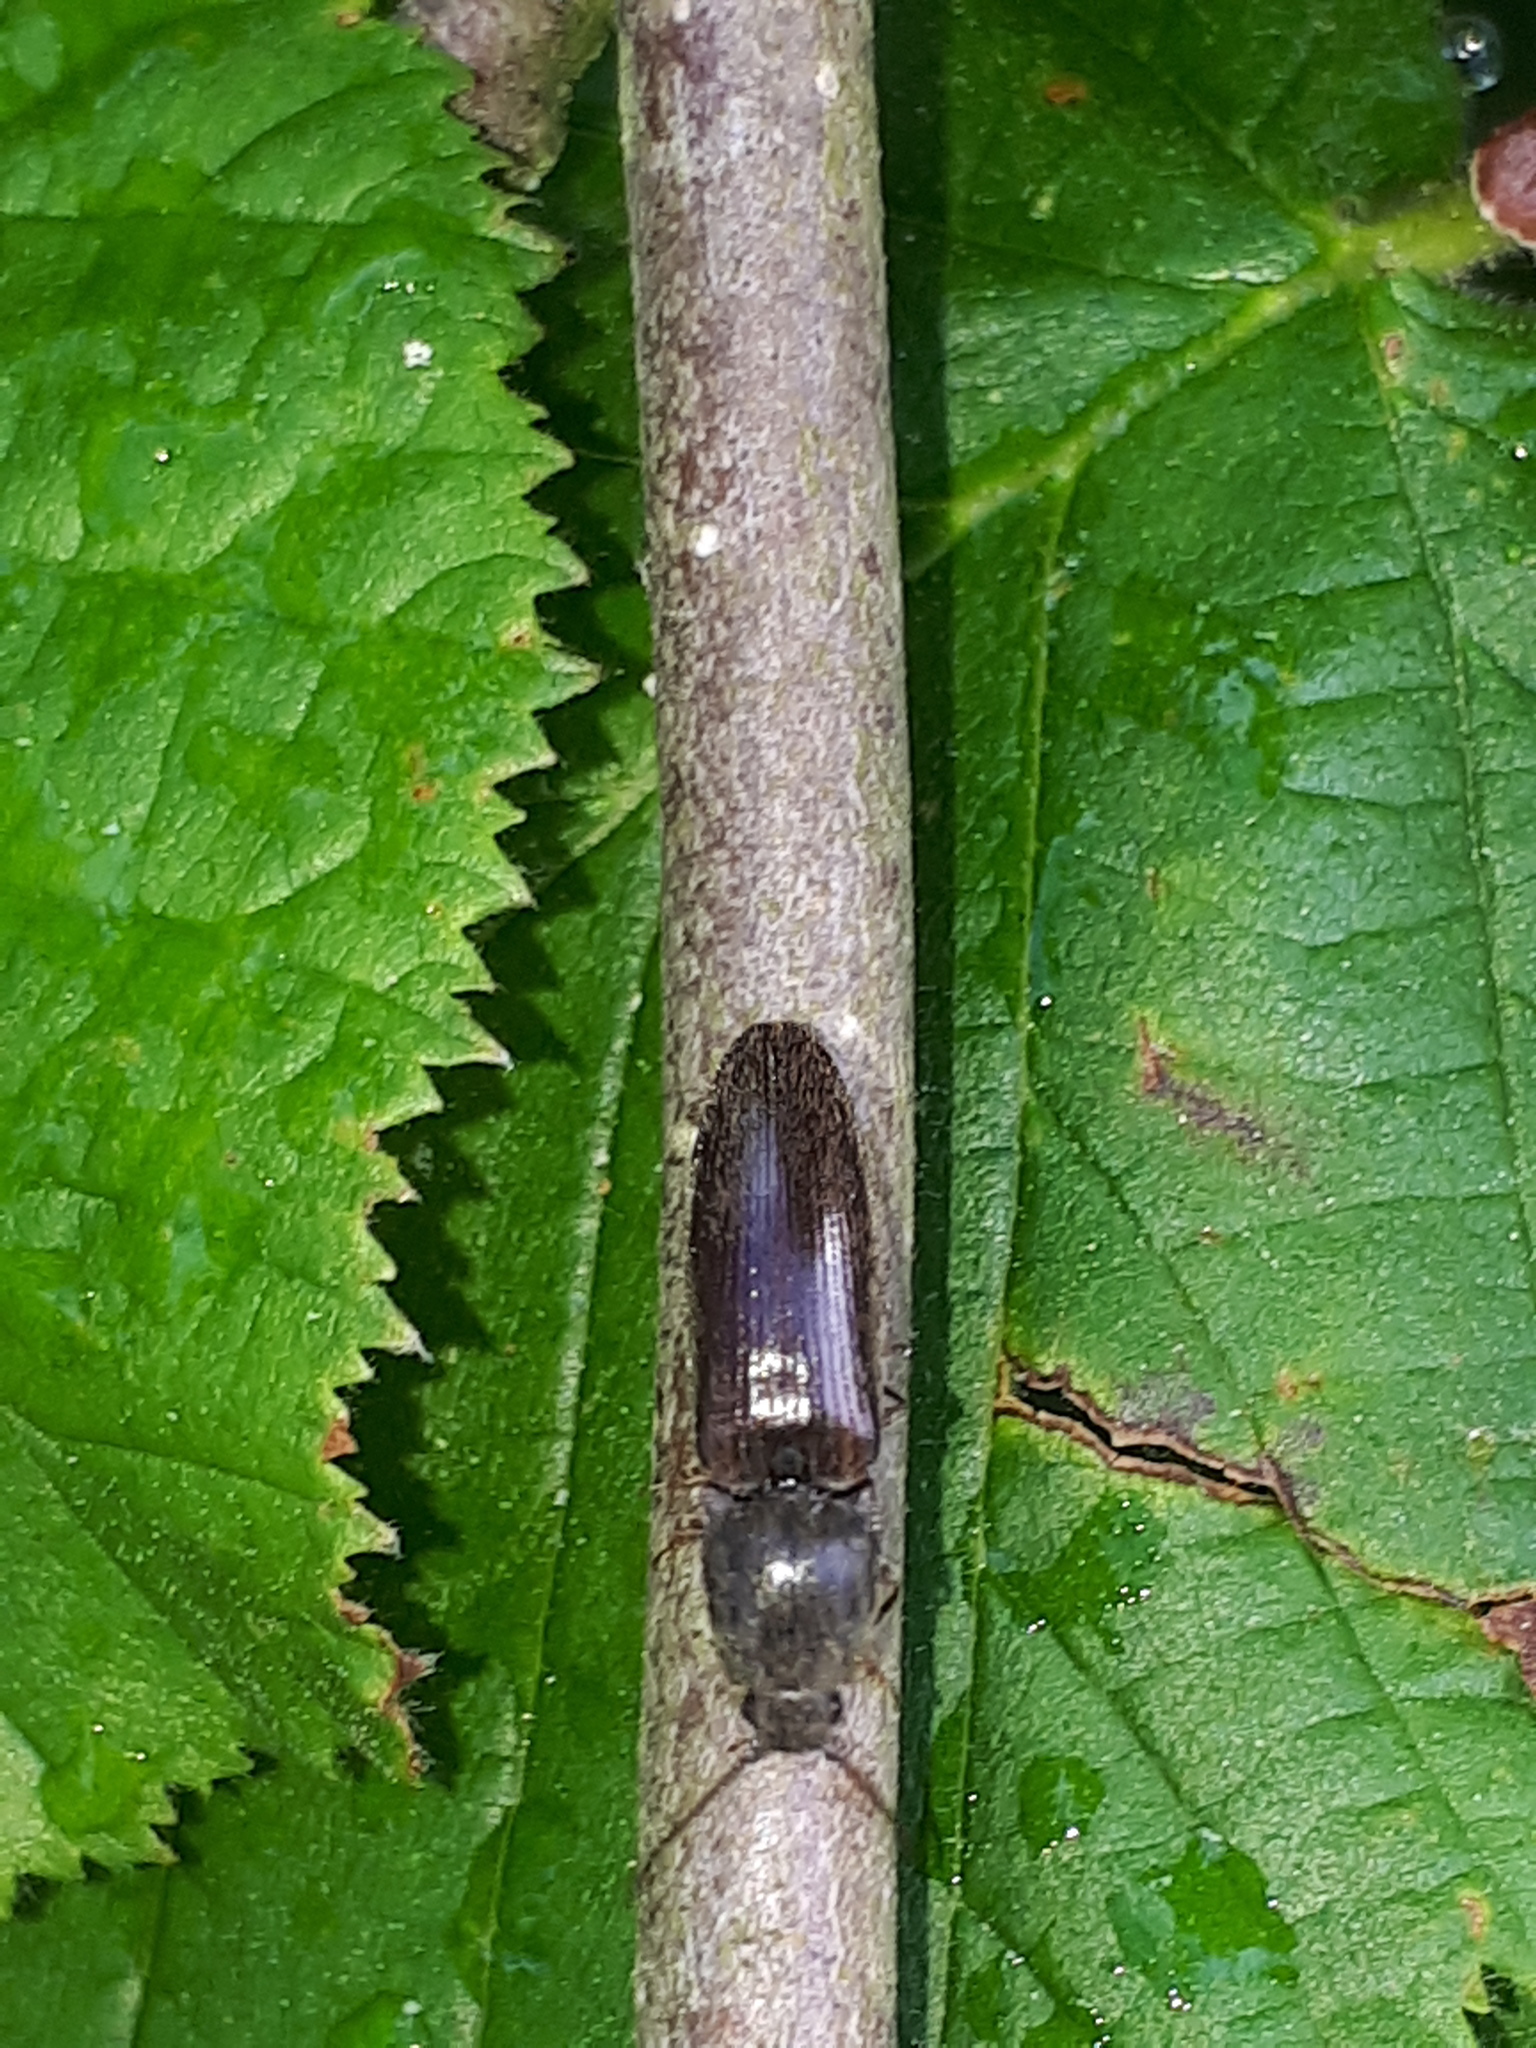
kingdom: Animalia
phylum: Arthropoda
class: Insecta
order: Coleoptera
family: Elateridae
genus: Athous
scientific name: Athous haemorrhoidalis
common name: Red-brown click beetle
